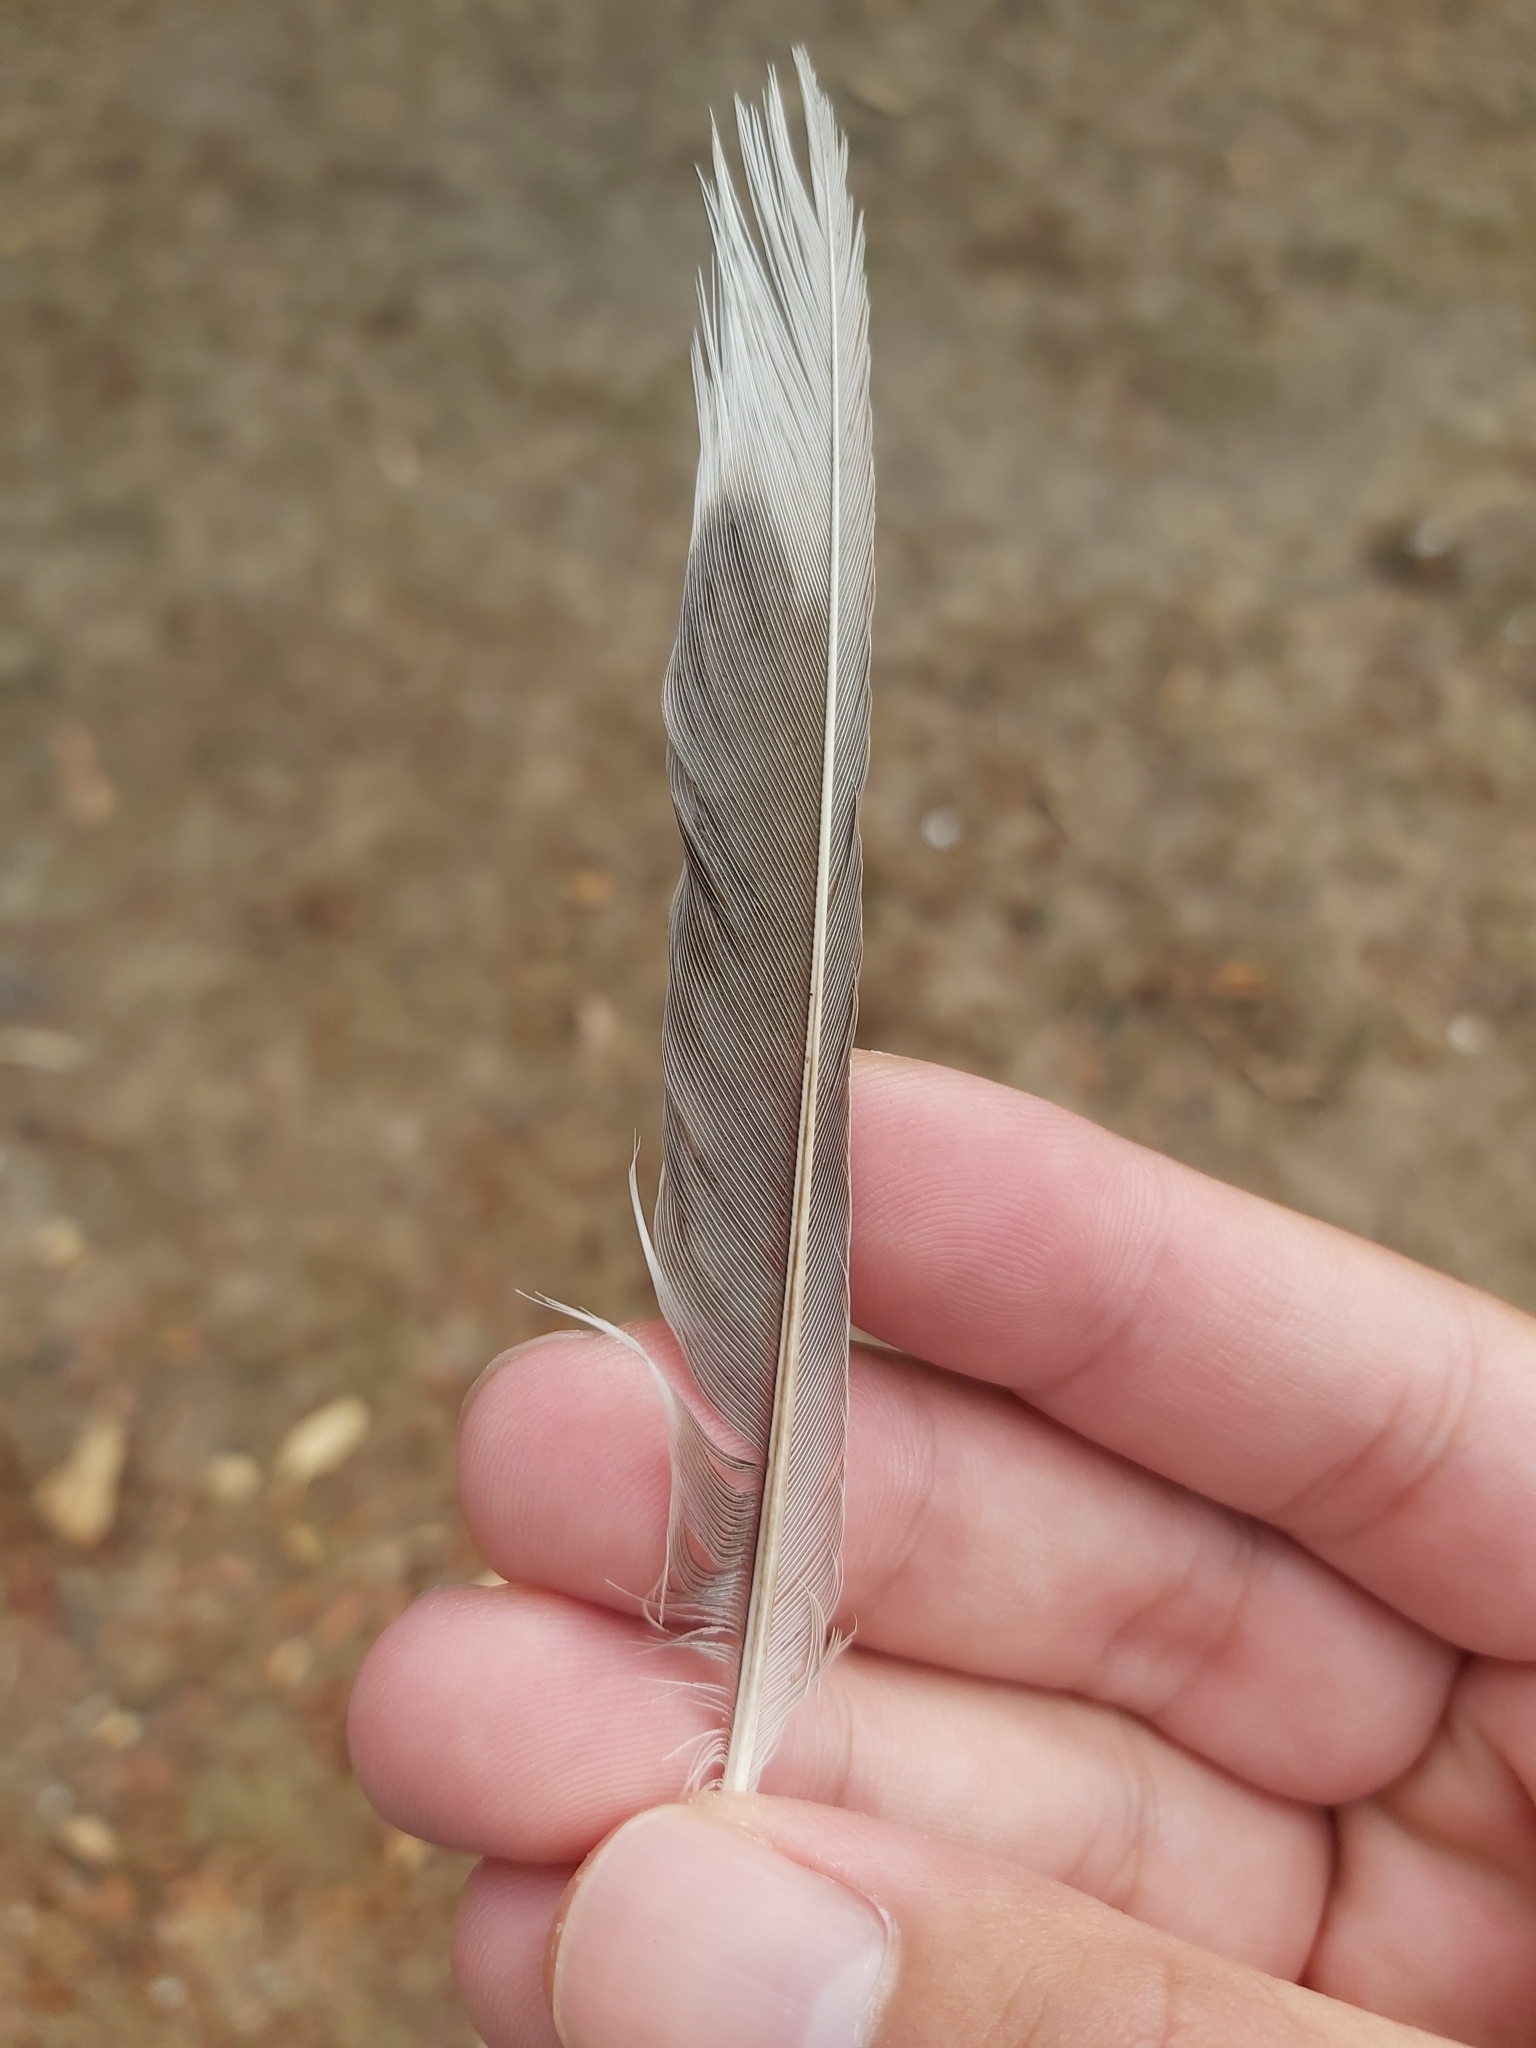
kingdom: Animalia
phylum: Chordata
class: Aves
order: Passeriformes
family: Meliphagidae
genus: Manorina
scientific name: Manorina melanocephala
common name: Noisy miner
